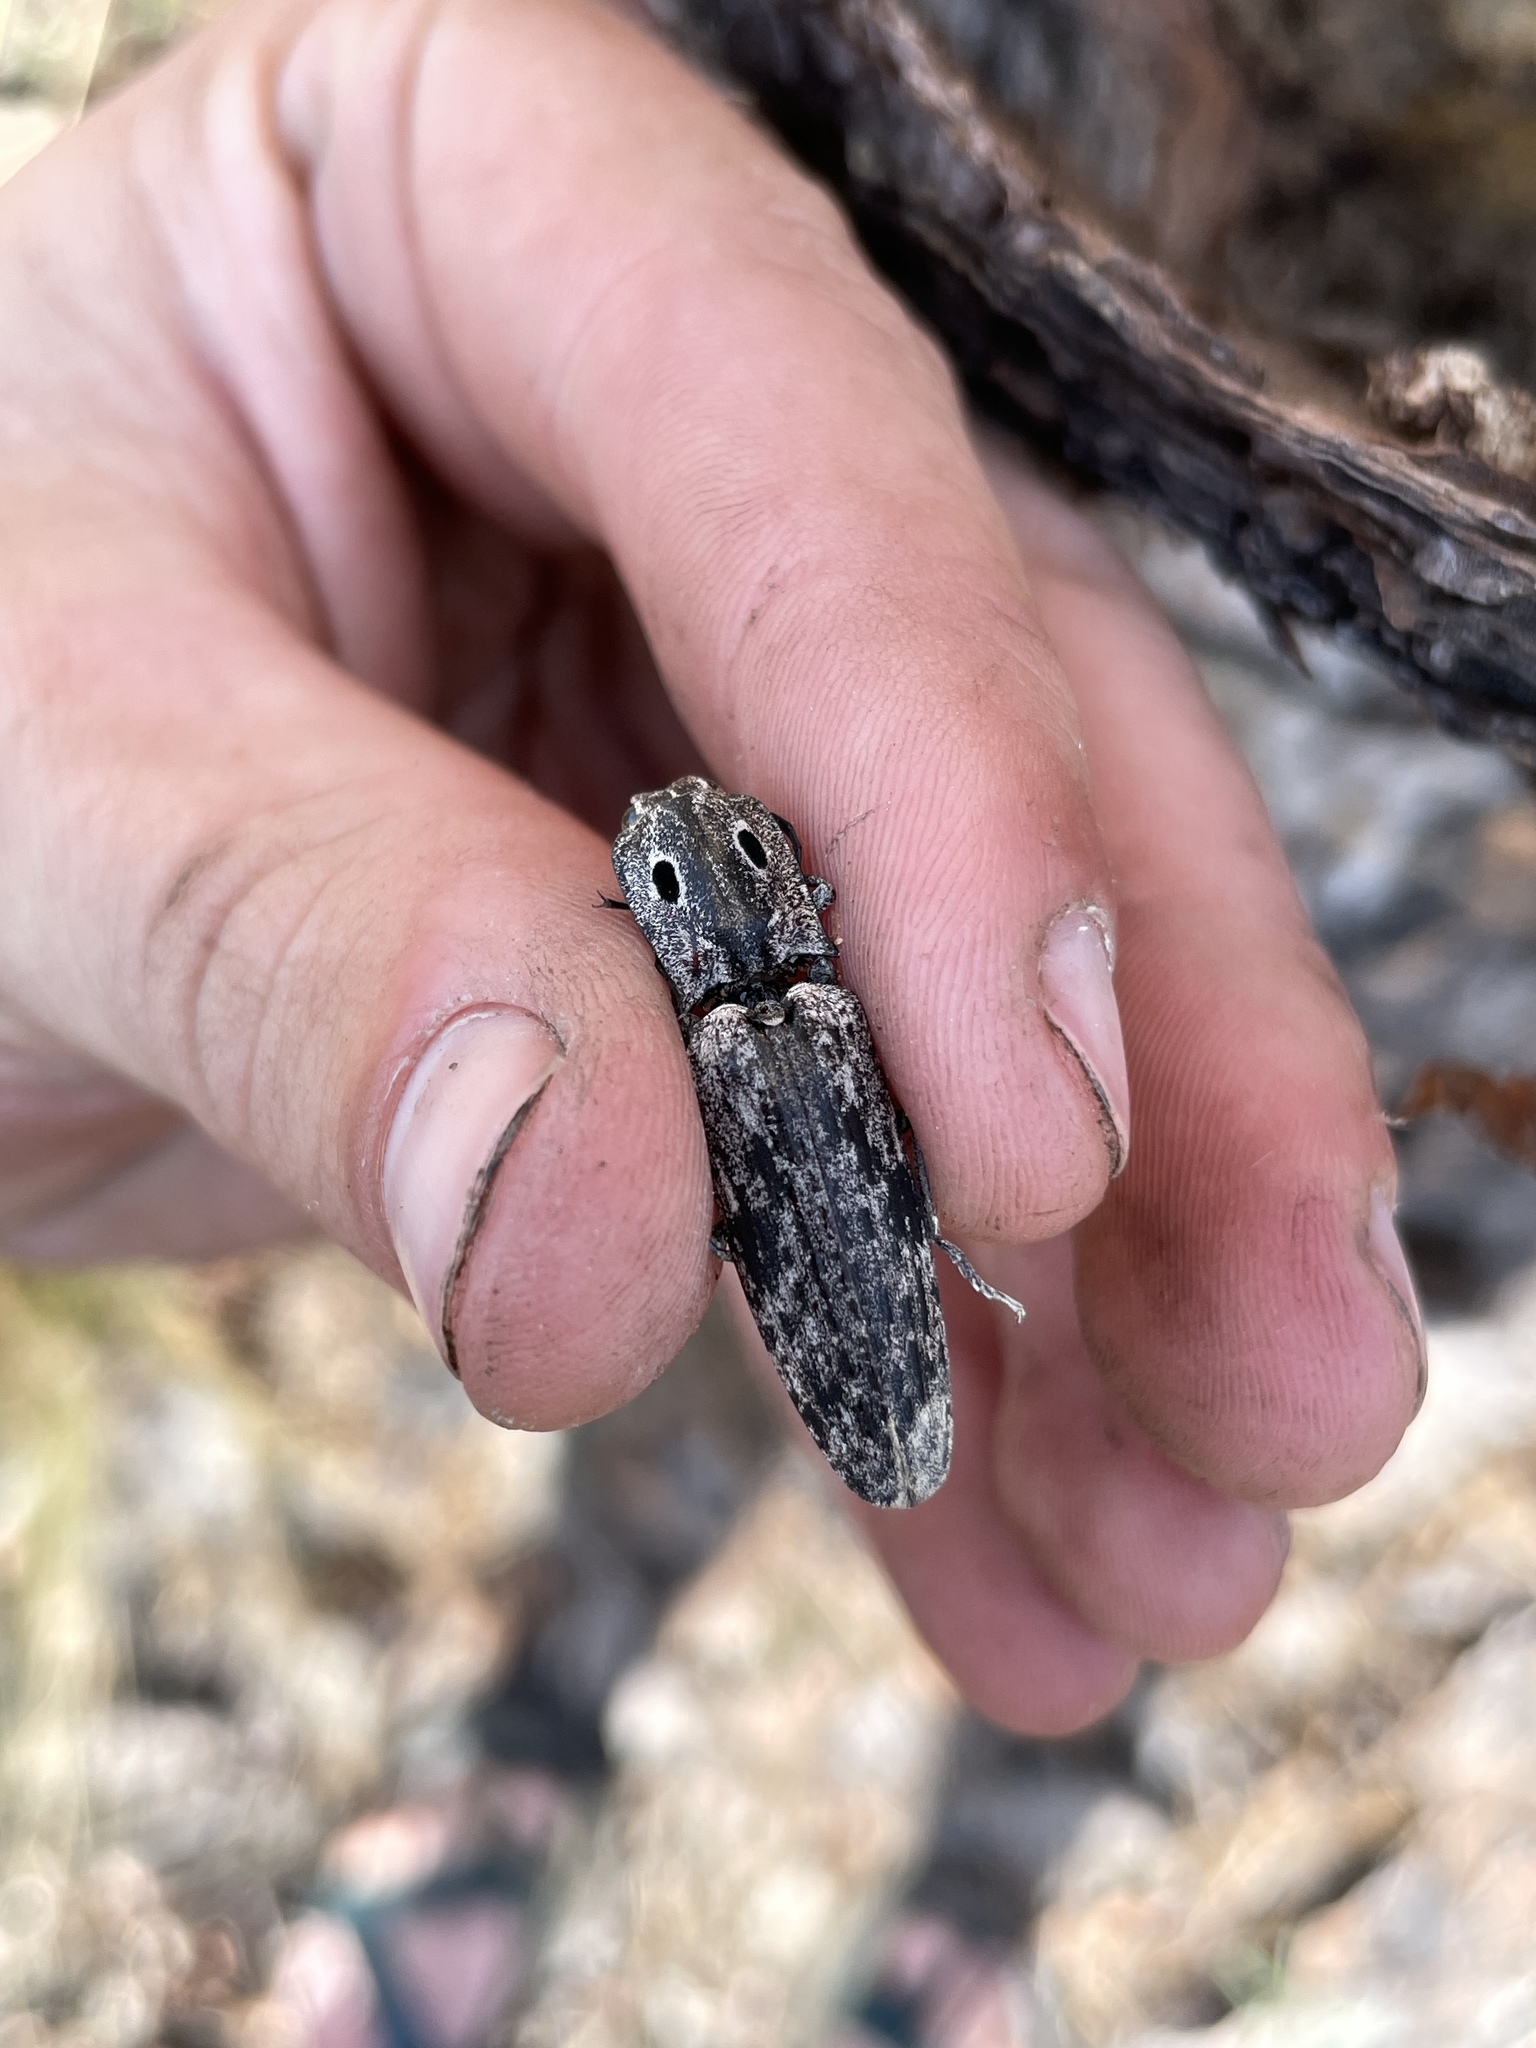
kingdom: Animalia
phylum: Arthropoda
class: Insecta
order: Coleoptera
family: Elateridae
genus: Alaus
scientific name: Alaus myops
